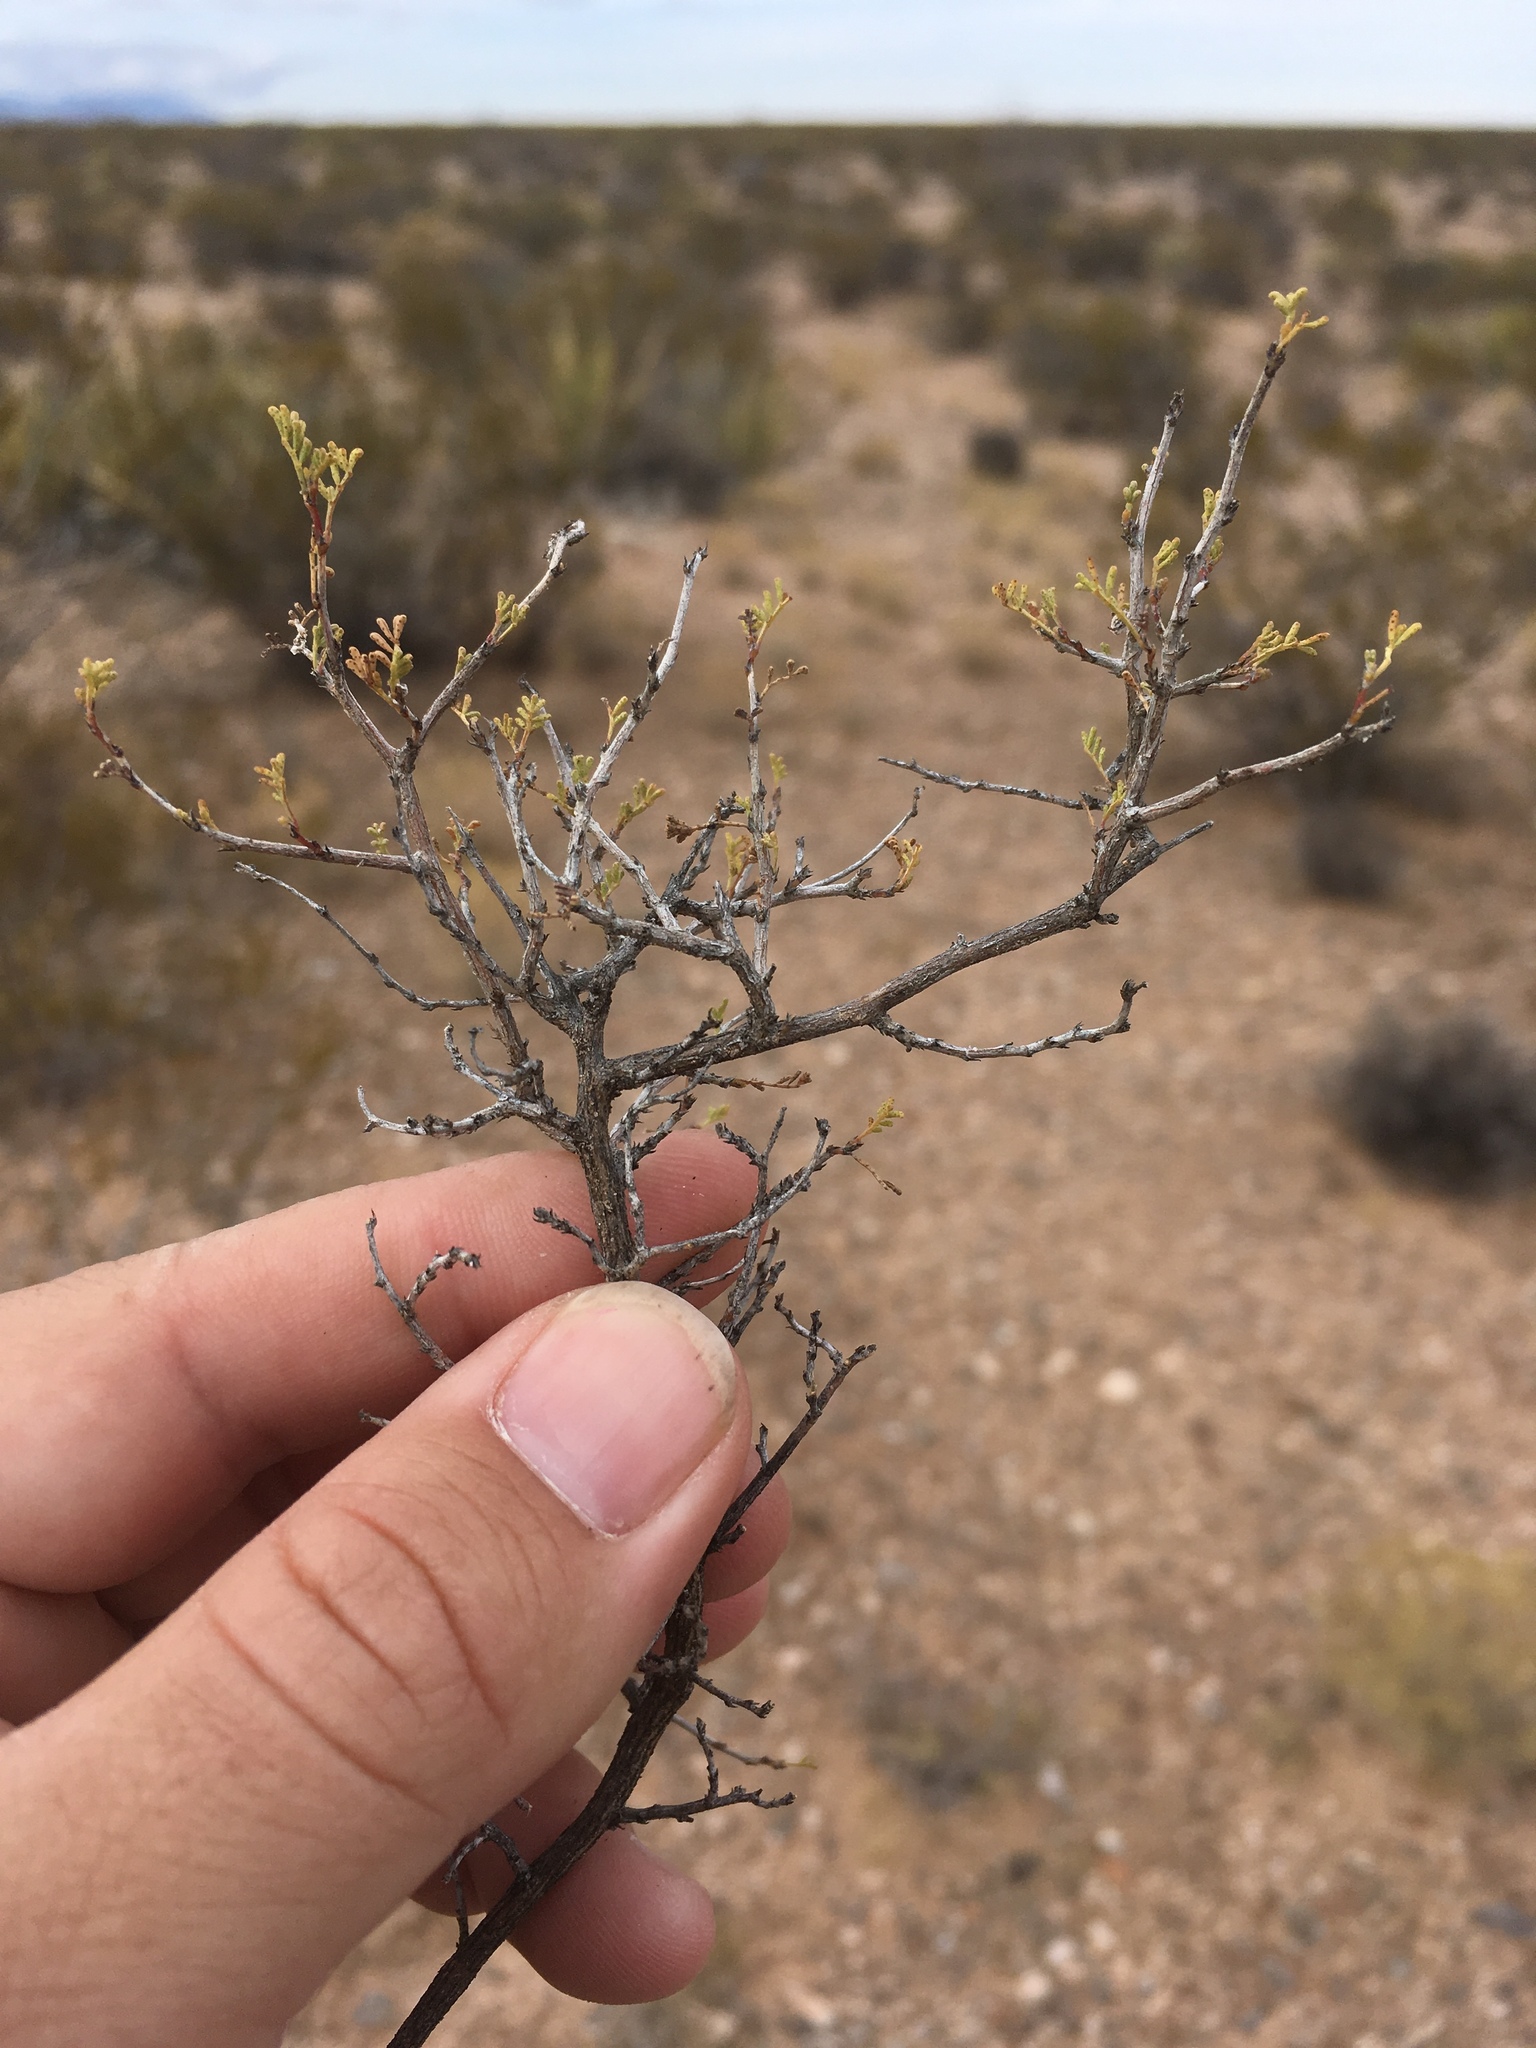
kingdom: Plantae
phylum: Tracheophyta
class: Magnoliopsida
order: Fabales
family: Fabaceae
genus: Dalea
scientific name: Dalea formosa
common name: Feather-plume dalea
